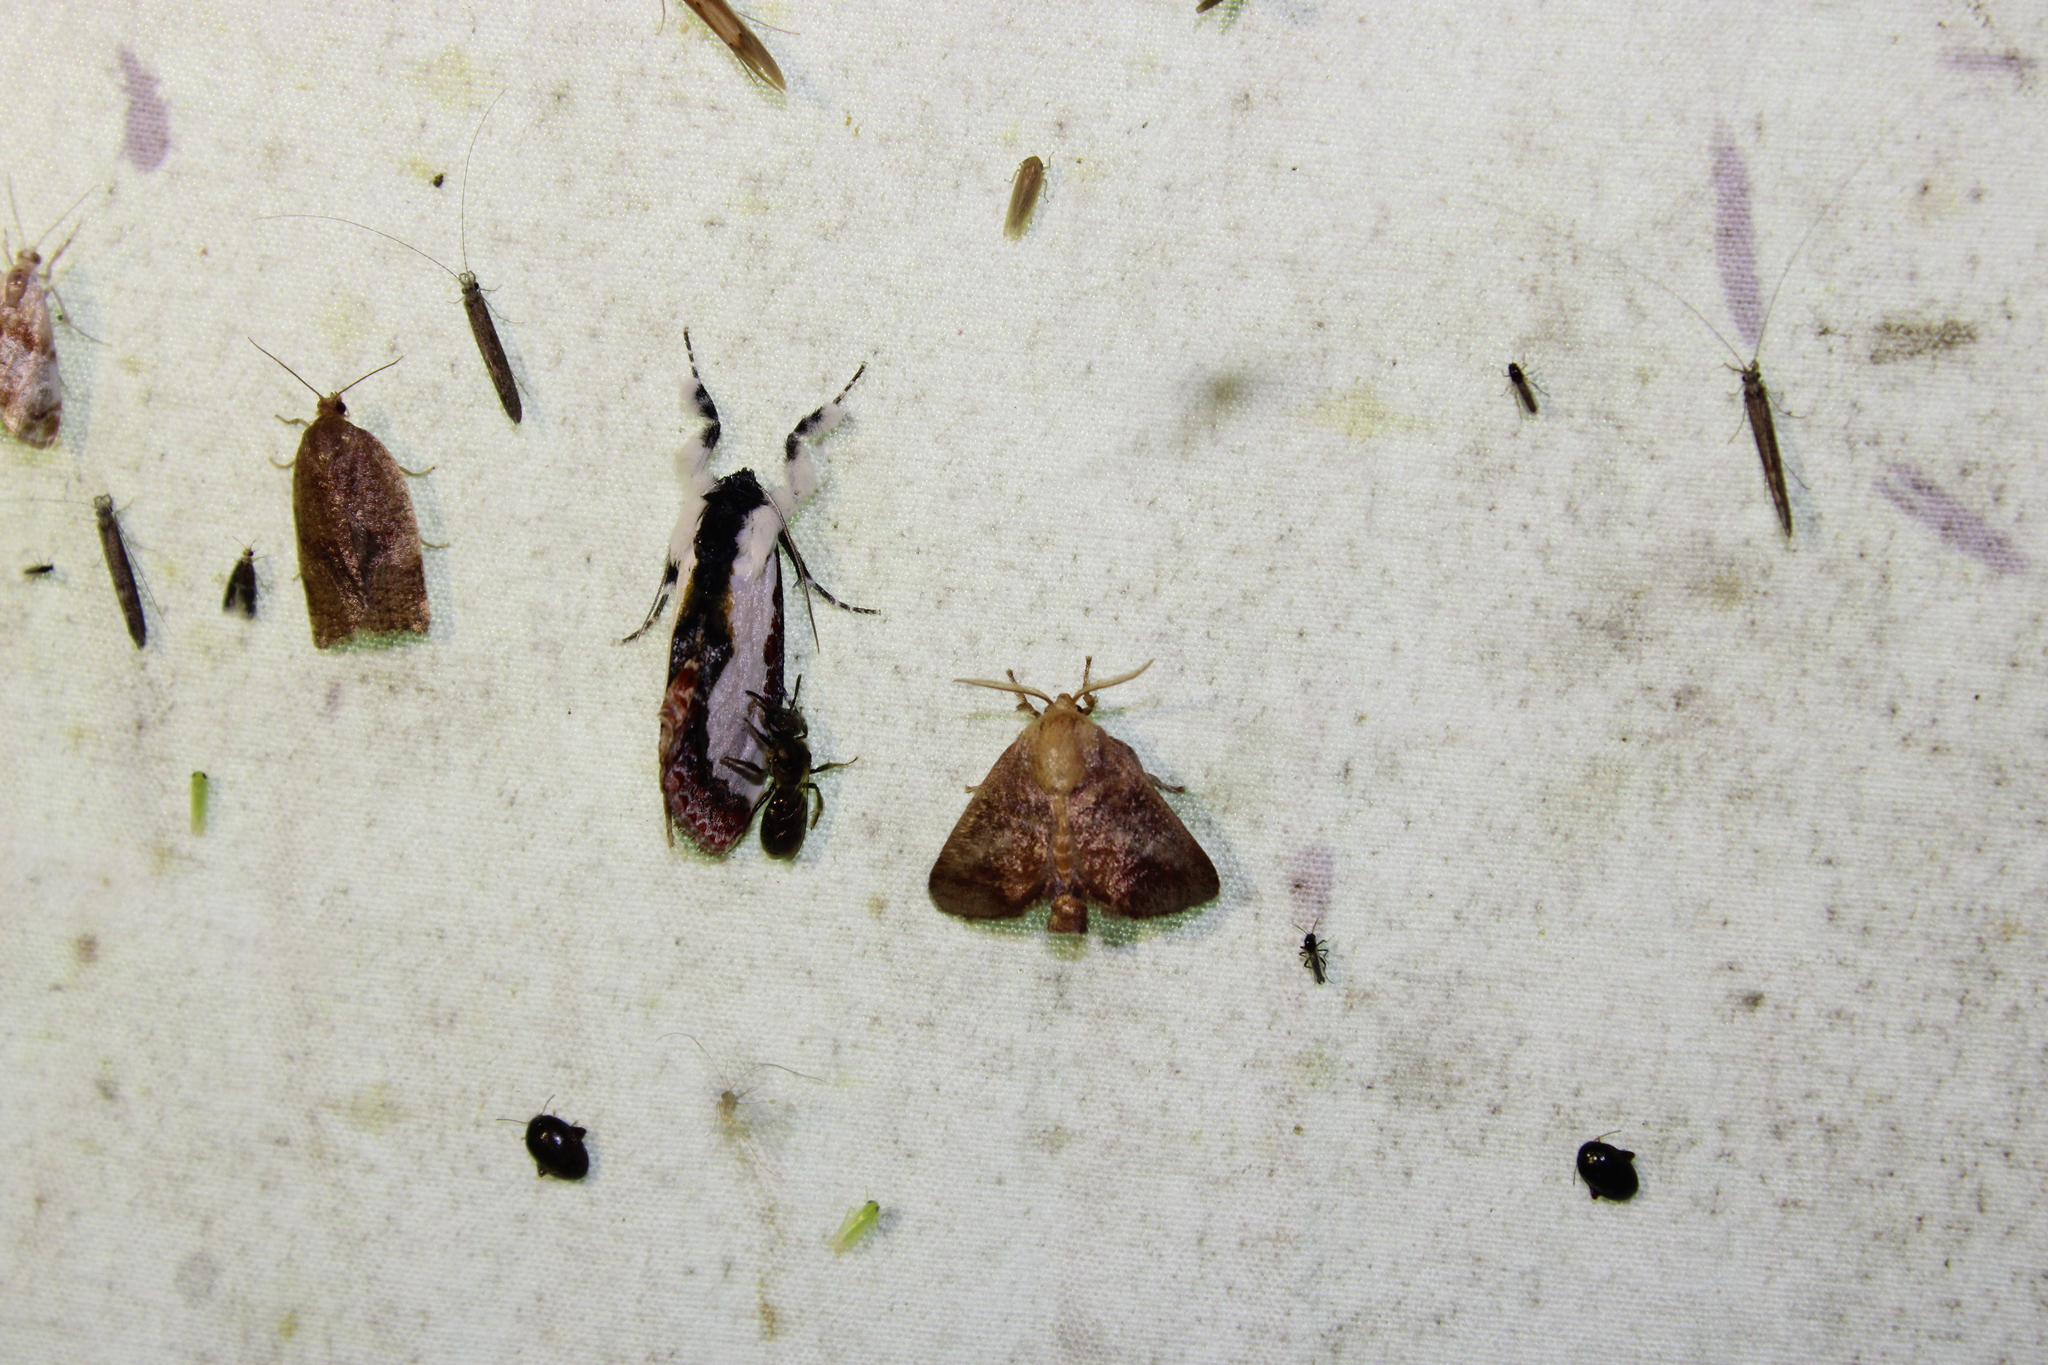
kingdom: Animalia
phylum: Arthropoda
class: Insecta
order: Lepidoptera
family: Limacodidae
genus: Isa
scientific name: Isa textula
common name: Crowned slug moth
